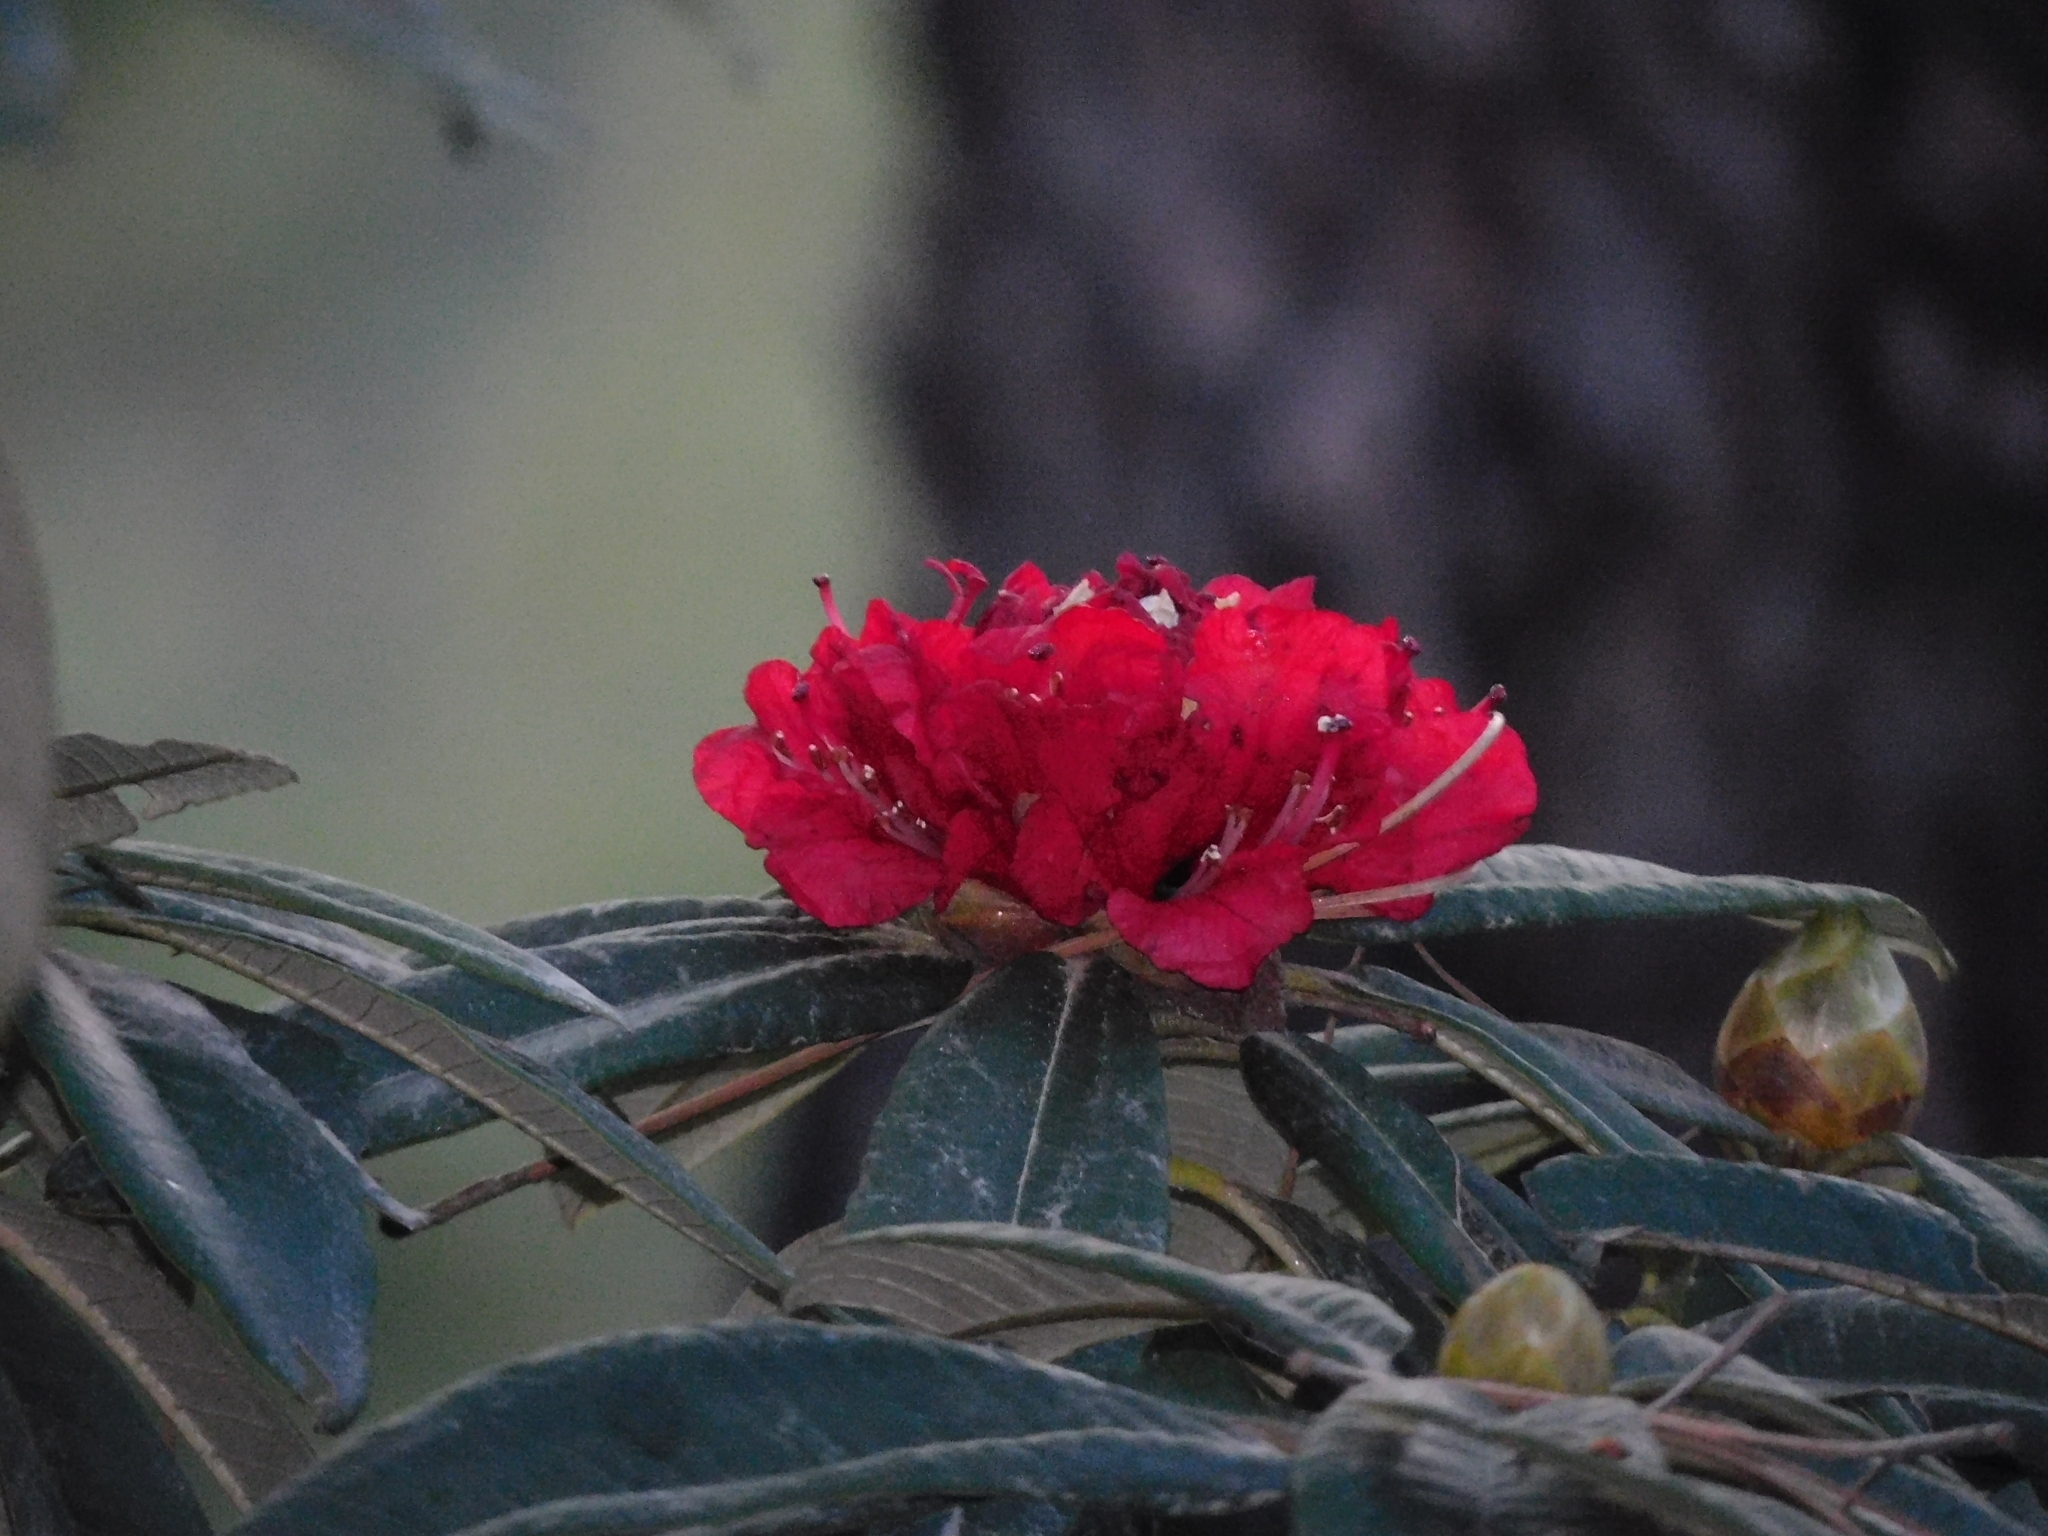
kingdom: Plantae
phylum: Tracheophyta
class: Magnoliopsida
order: Ericales
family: Ericaceae
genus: Rhododendron
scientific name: Rhododendron arboreum
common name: Tree rhododendron
